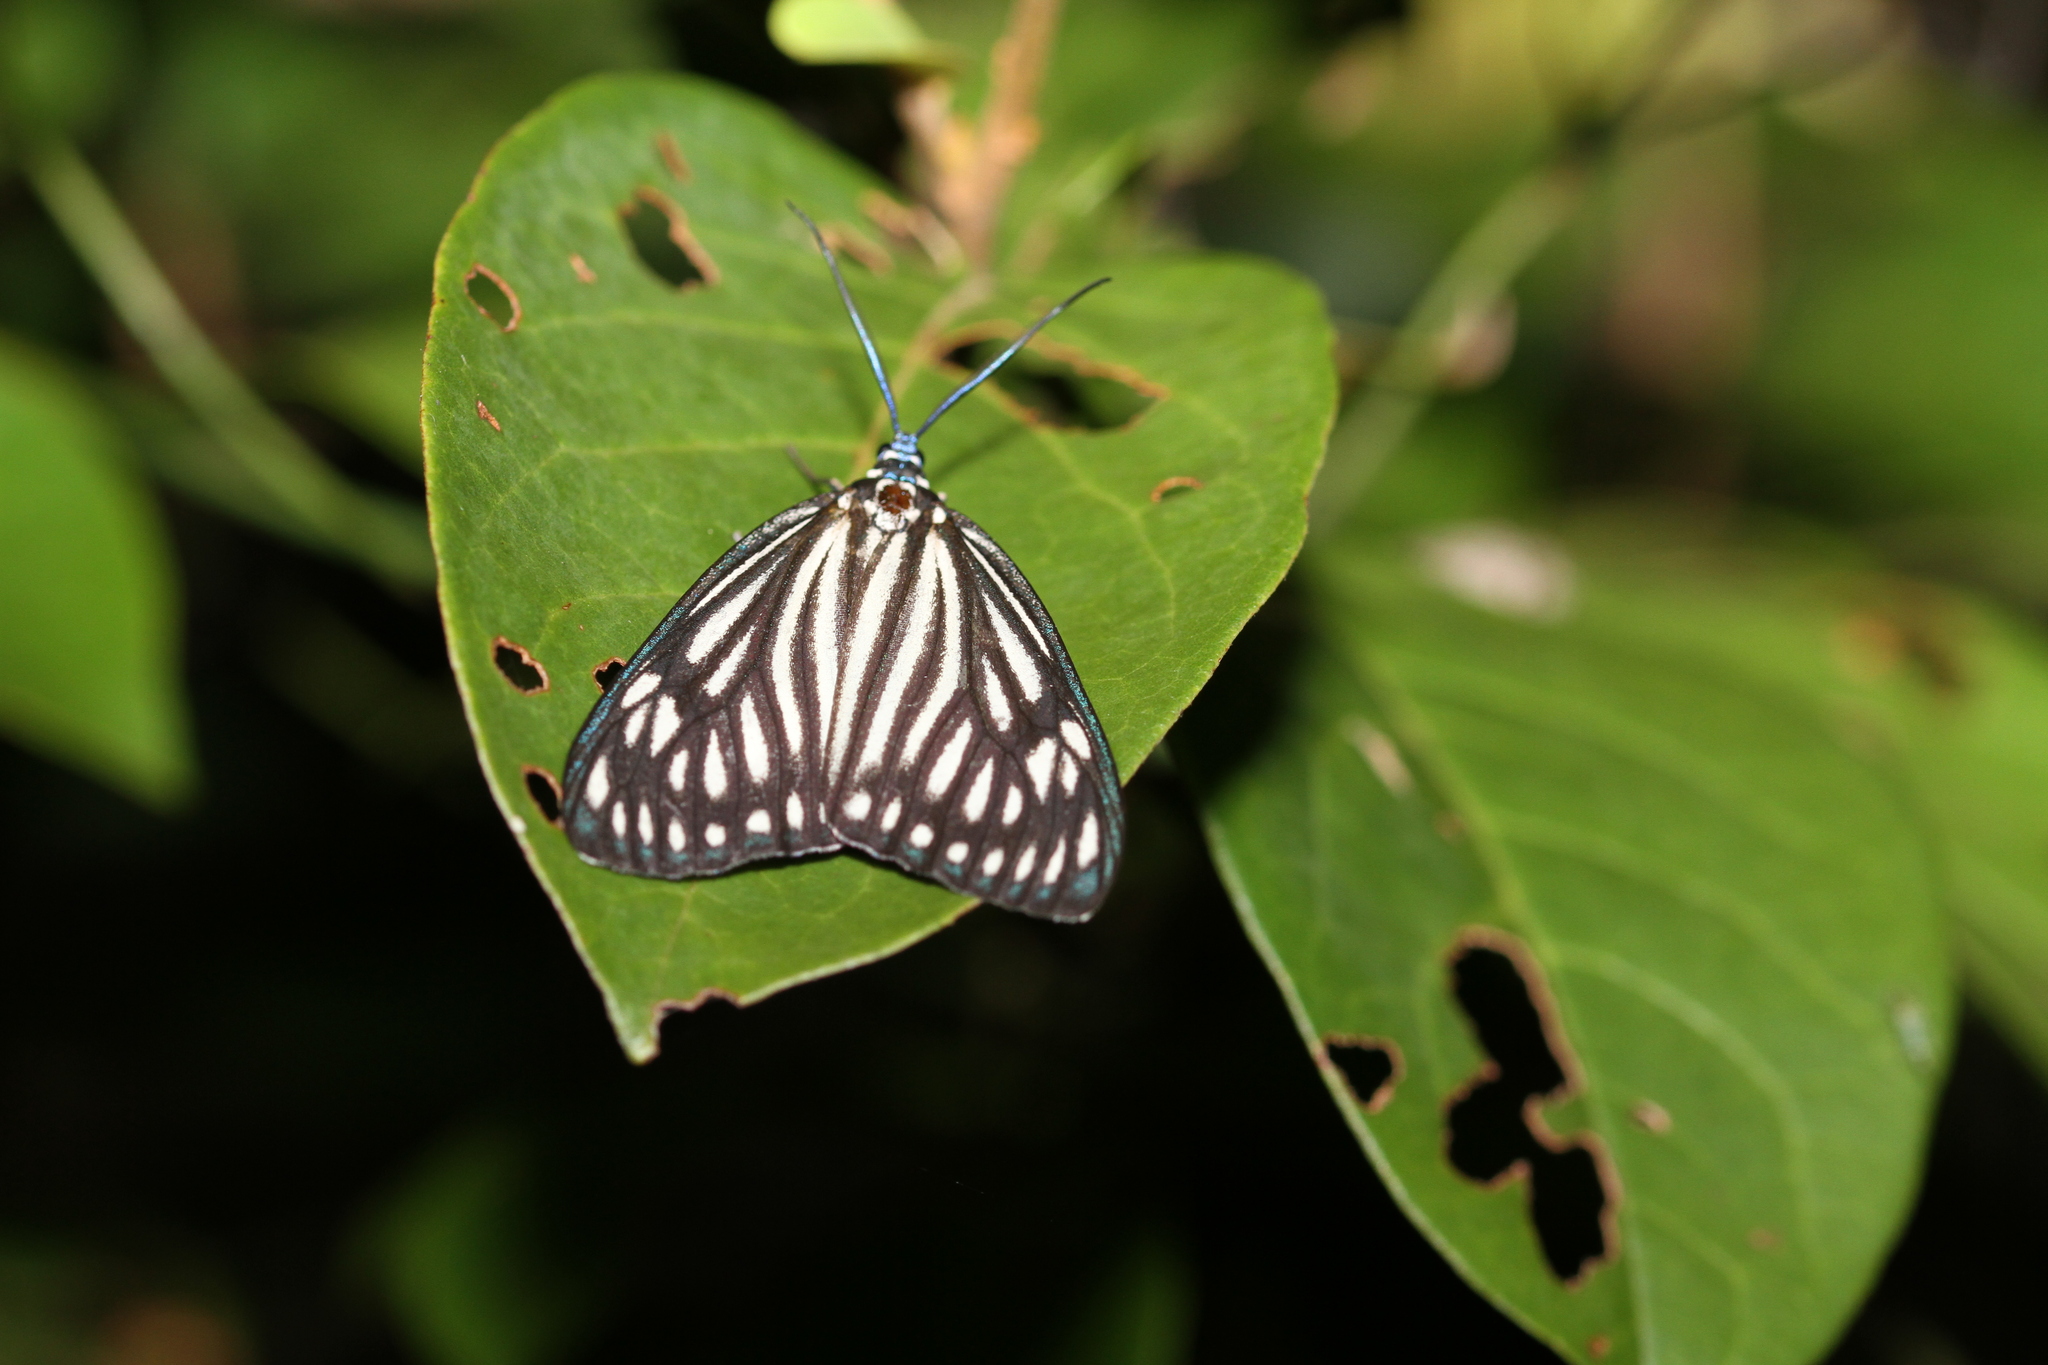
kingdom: Animalia
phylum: Arthropoda
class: Insecta
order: Lepidoptera
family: Zygaenidae
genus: Cyclosia
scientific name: Cyclosia papilionaris
